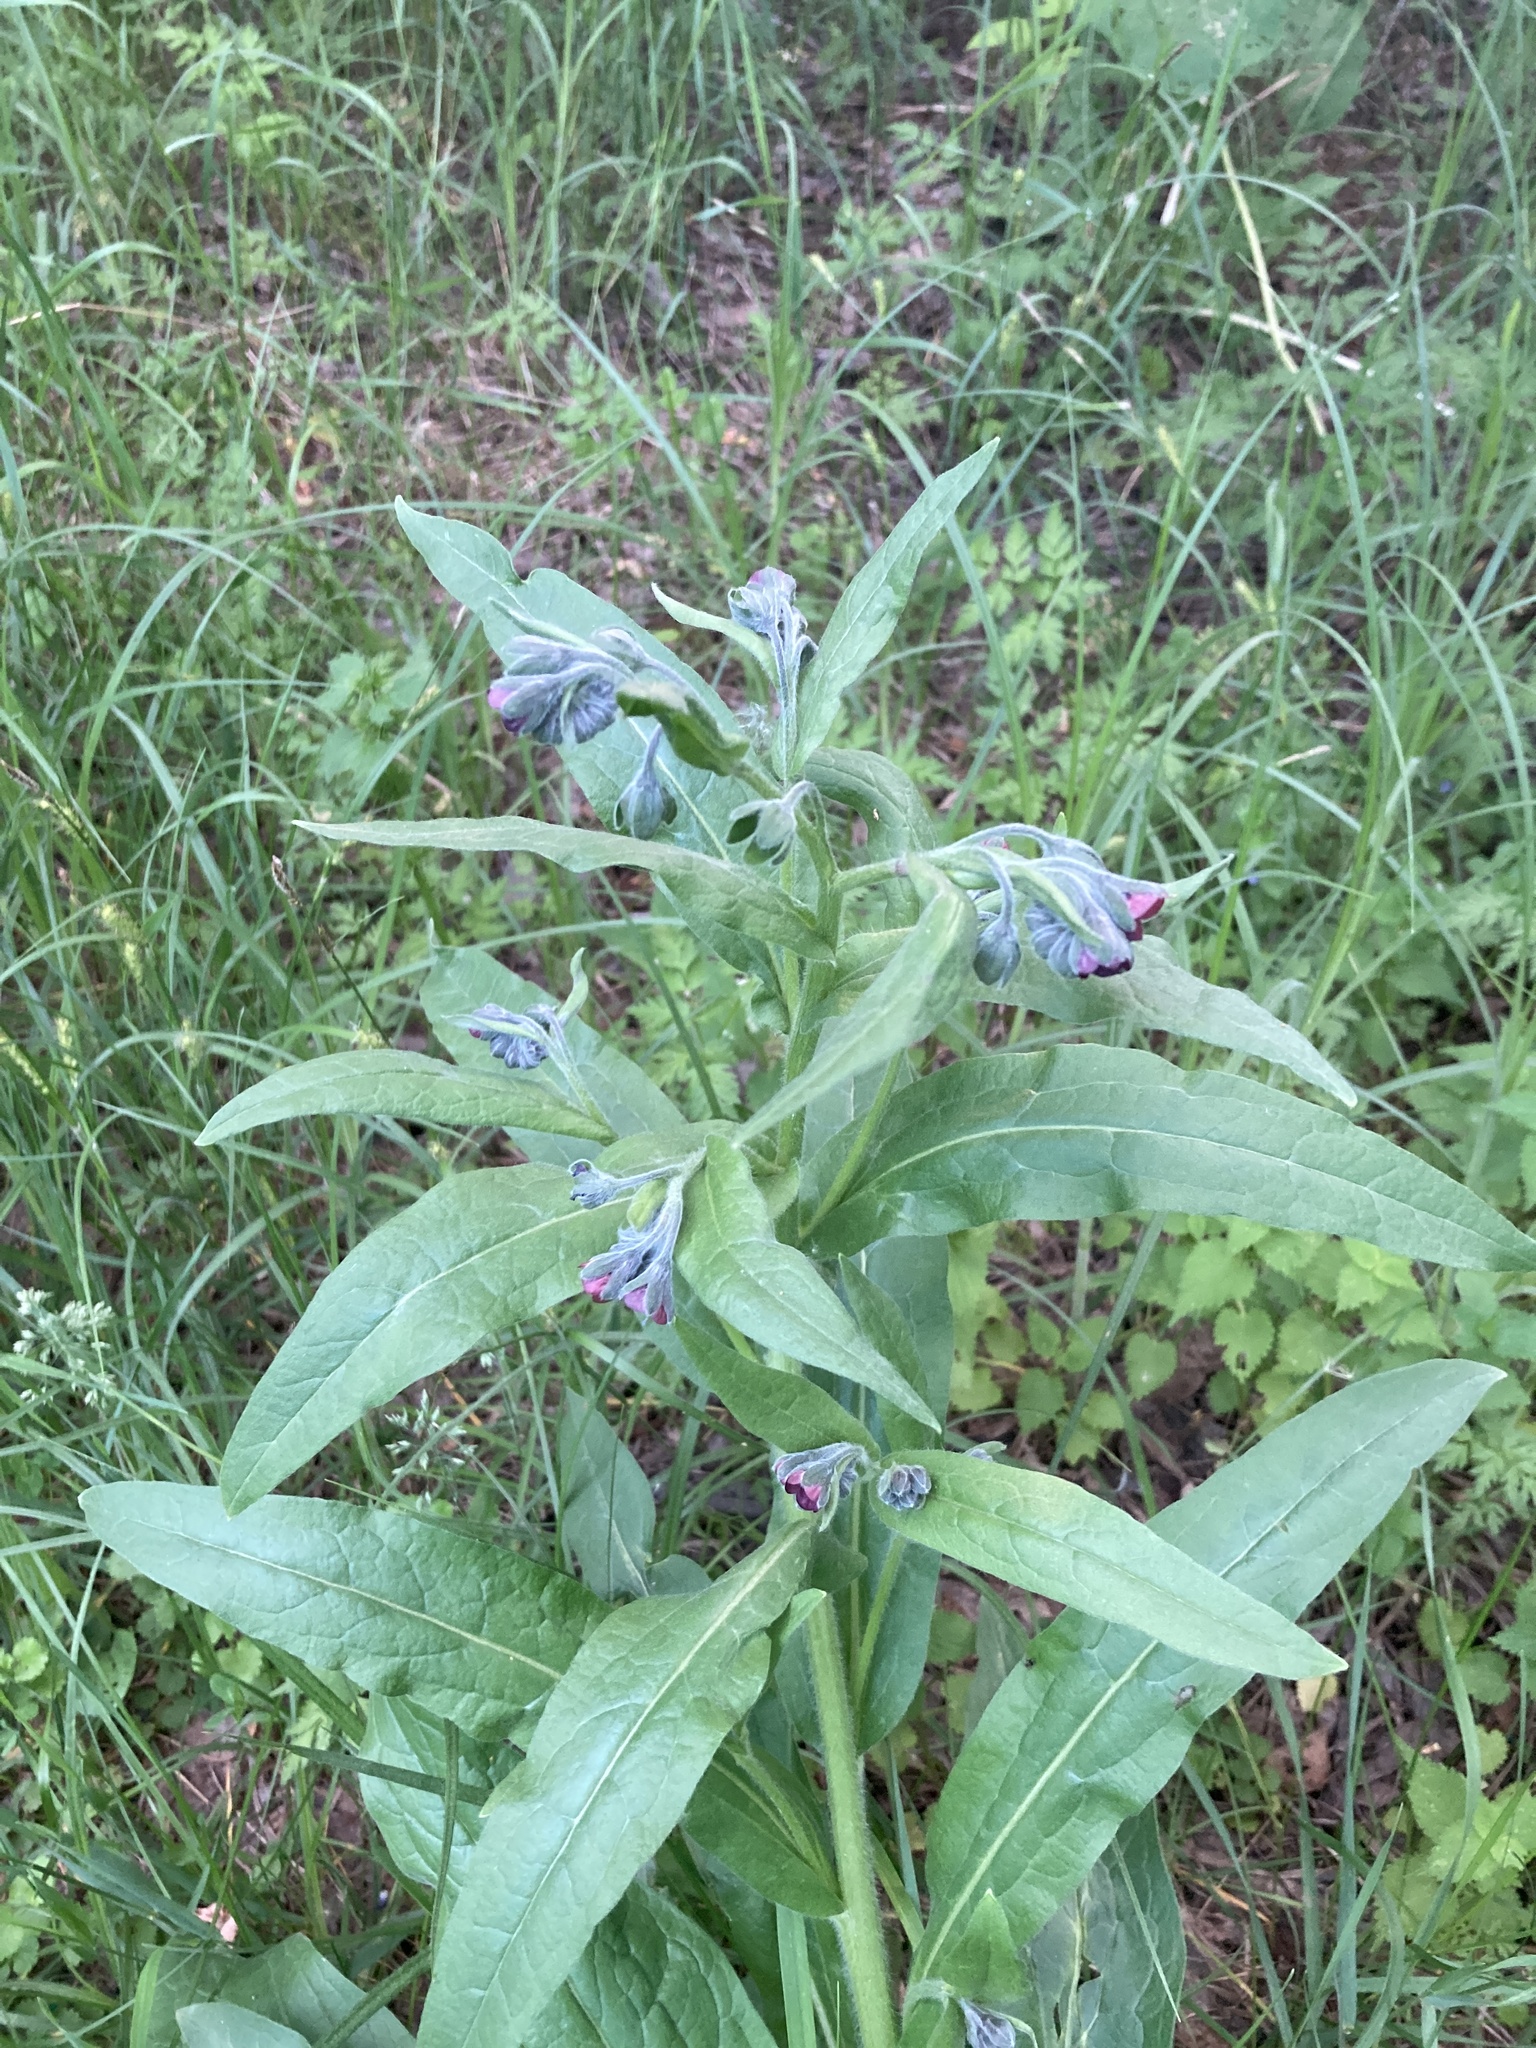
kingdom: Plantae
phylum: Tracheophyta
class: Magnoliopsida
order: Boraginales
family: Boraginaceae
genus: Cynoglossum
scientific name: Cynoglossum officinale
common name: Hound's-tongue
